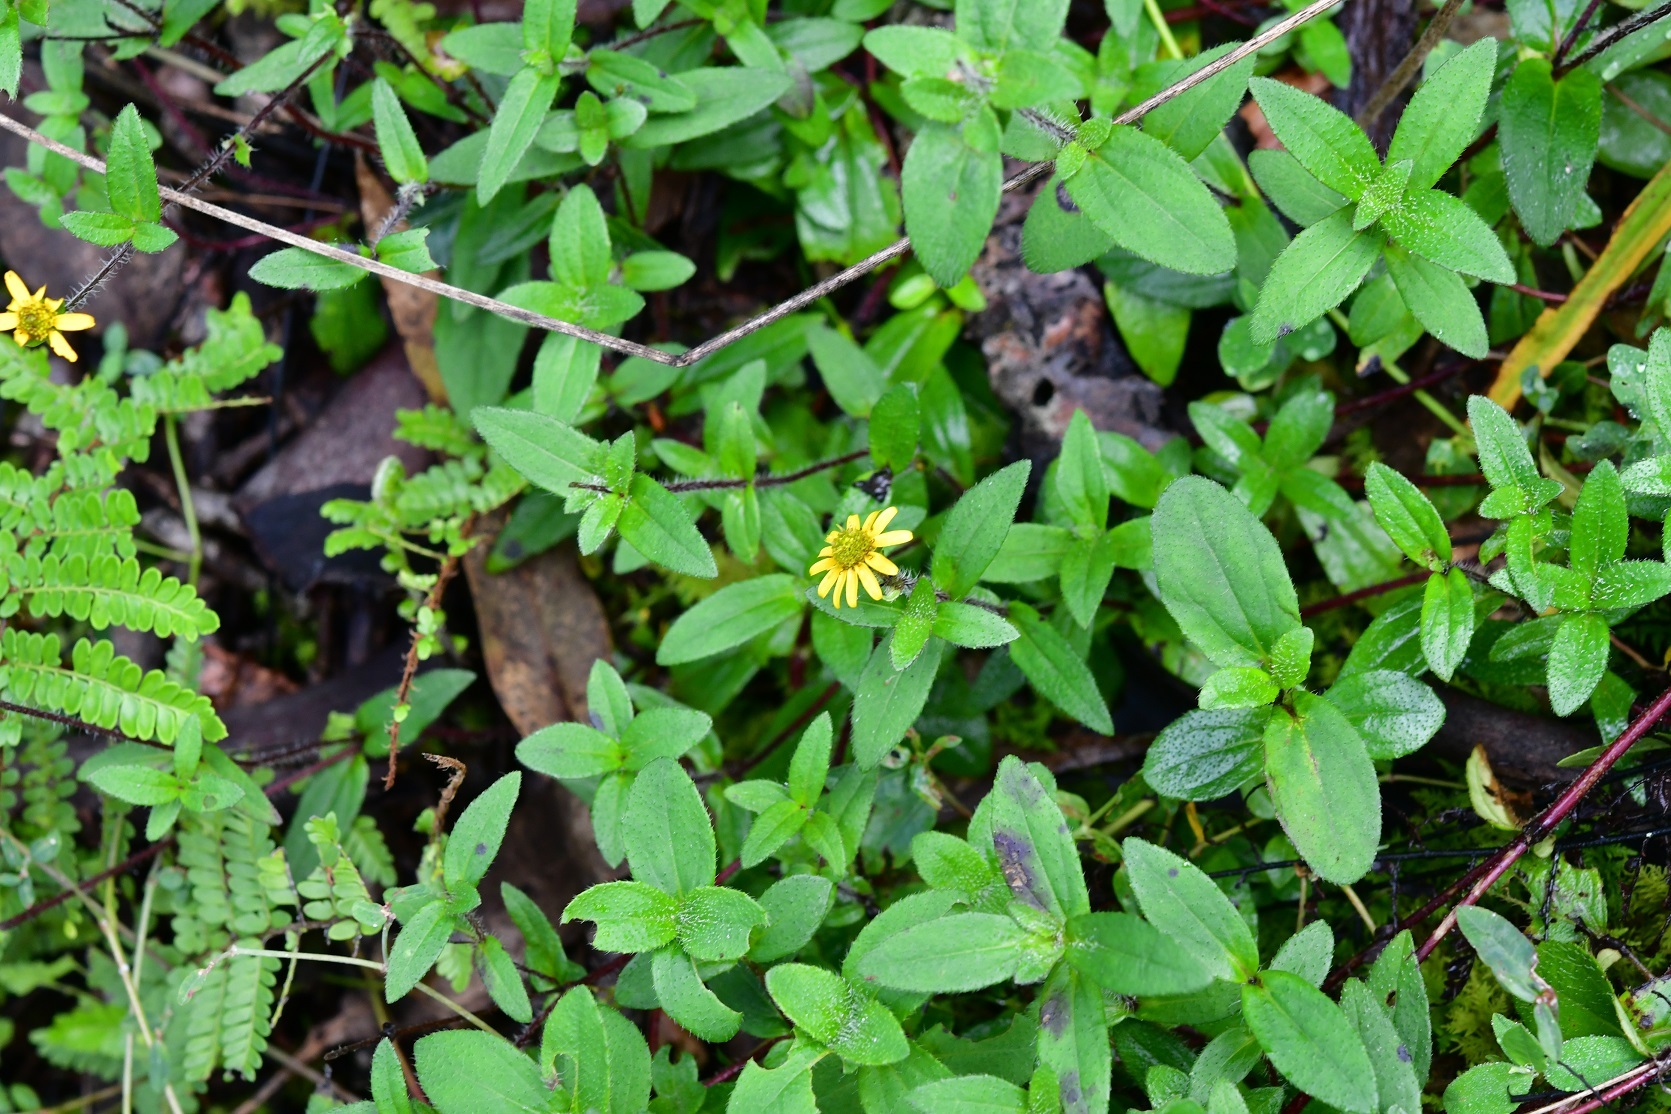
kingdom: Plantae
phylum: Tracheophyta
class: Magnoliopsida
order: Asterales
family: Asteraceae
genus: Melampodium
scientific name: Melampodium montanum
